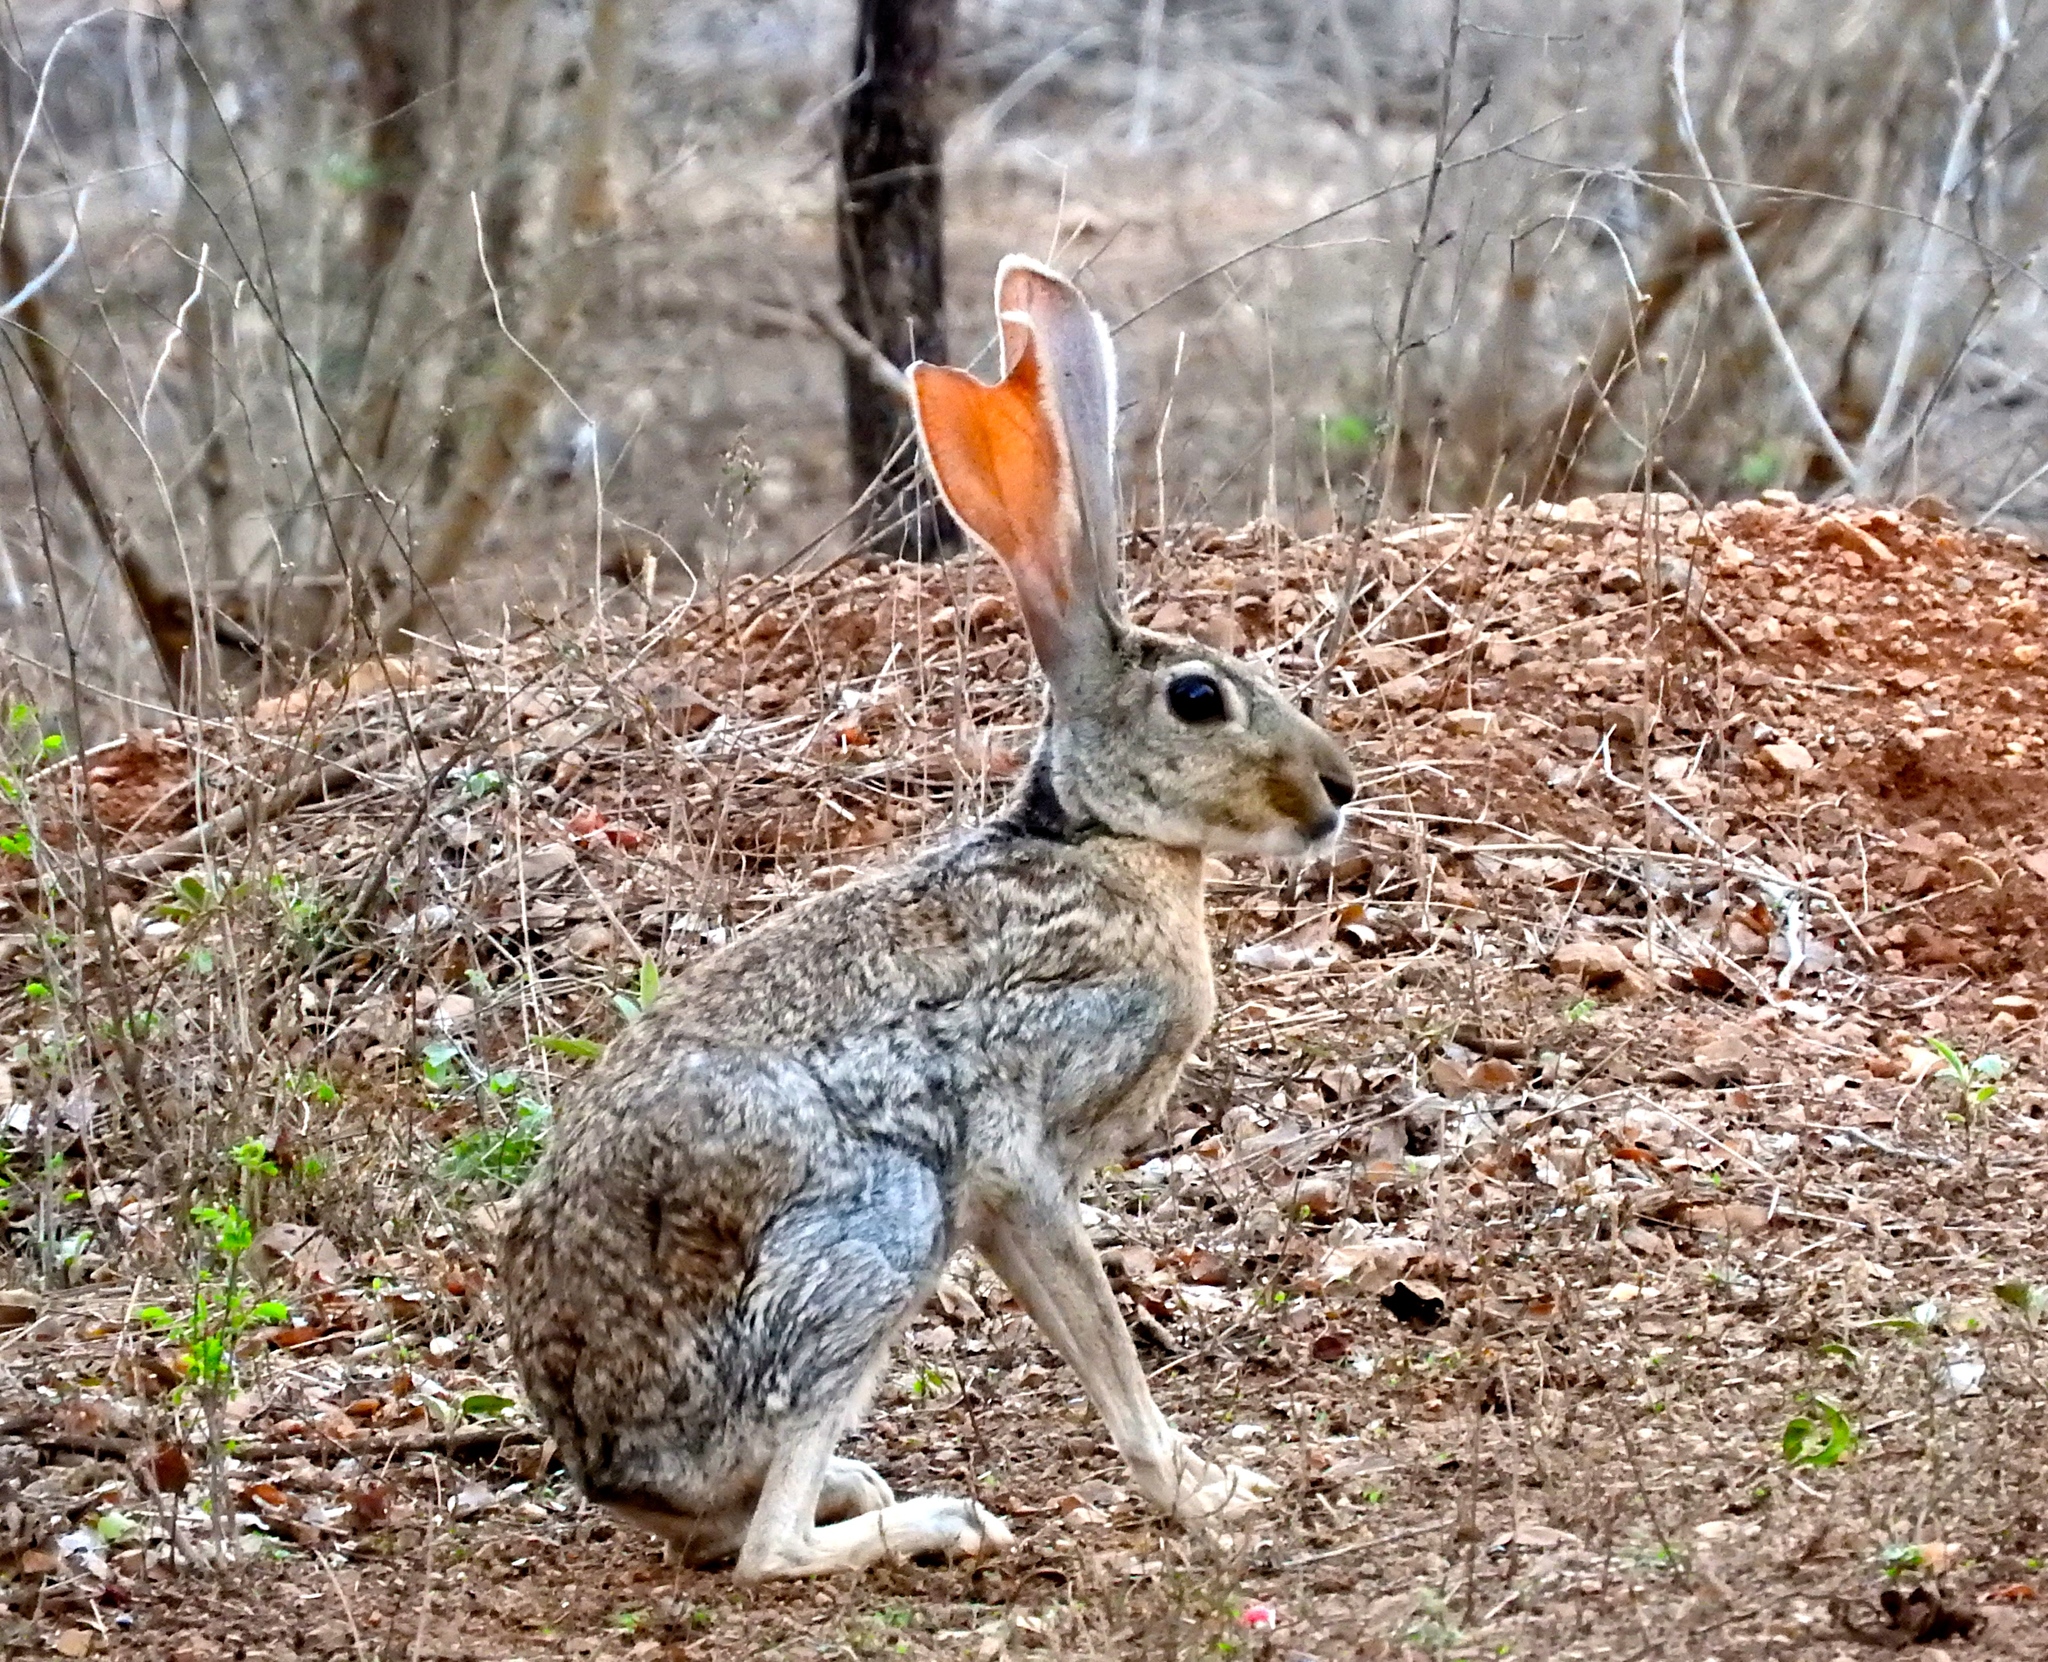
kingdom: Animalia
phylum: Chordata
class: Mammalia
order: Lagomorpha
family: Leporidae
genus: Lepus
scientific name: Lepus alleni
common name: Antelope jackrabbit
